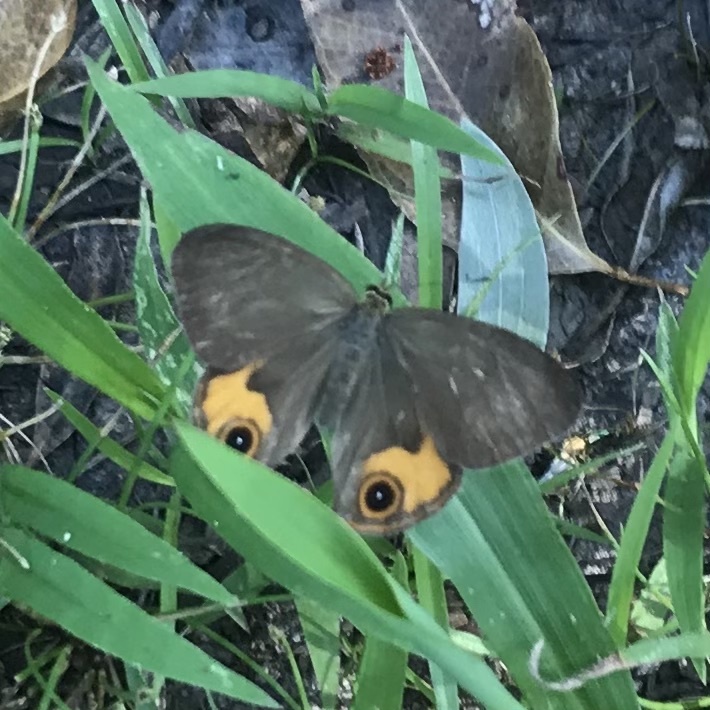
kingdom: Animalia
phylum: Arthropoda
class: Insecta
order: Lepidoptera
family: Nymphalidae
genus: Hypocysta
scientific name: Hypocysta metirius
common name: Brown ringlet
